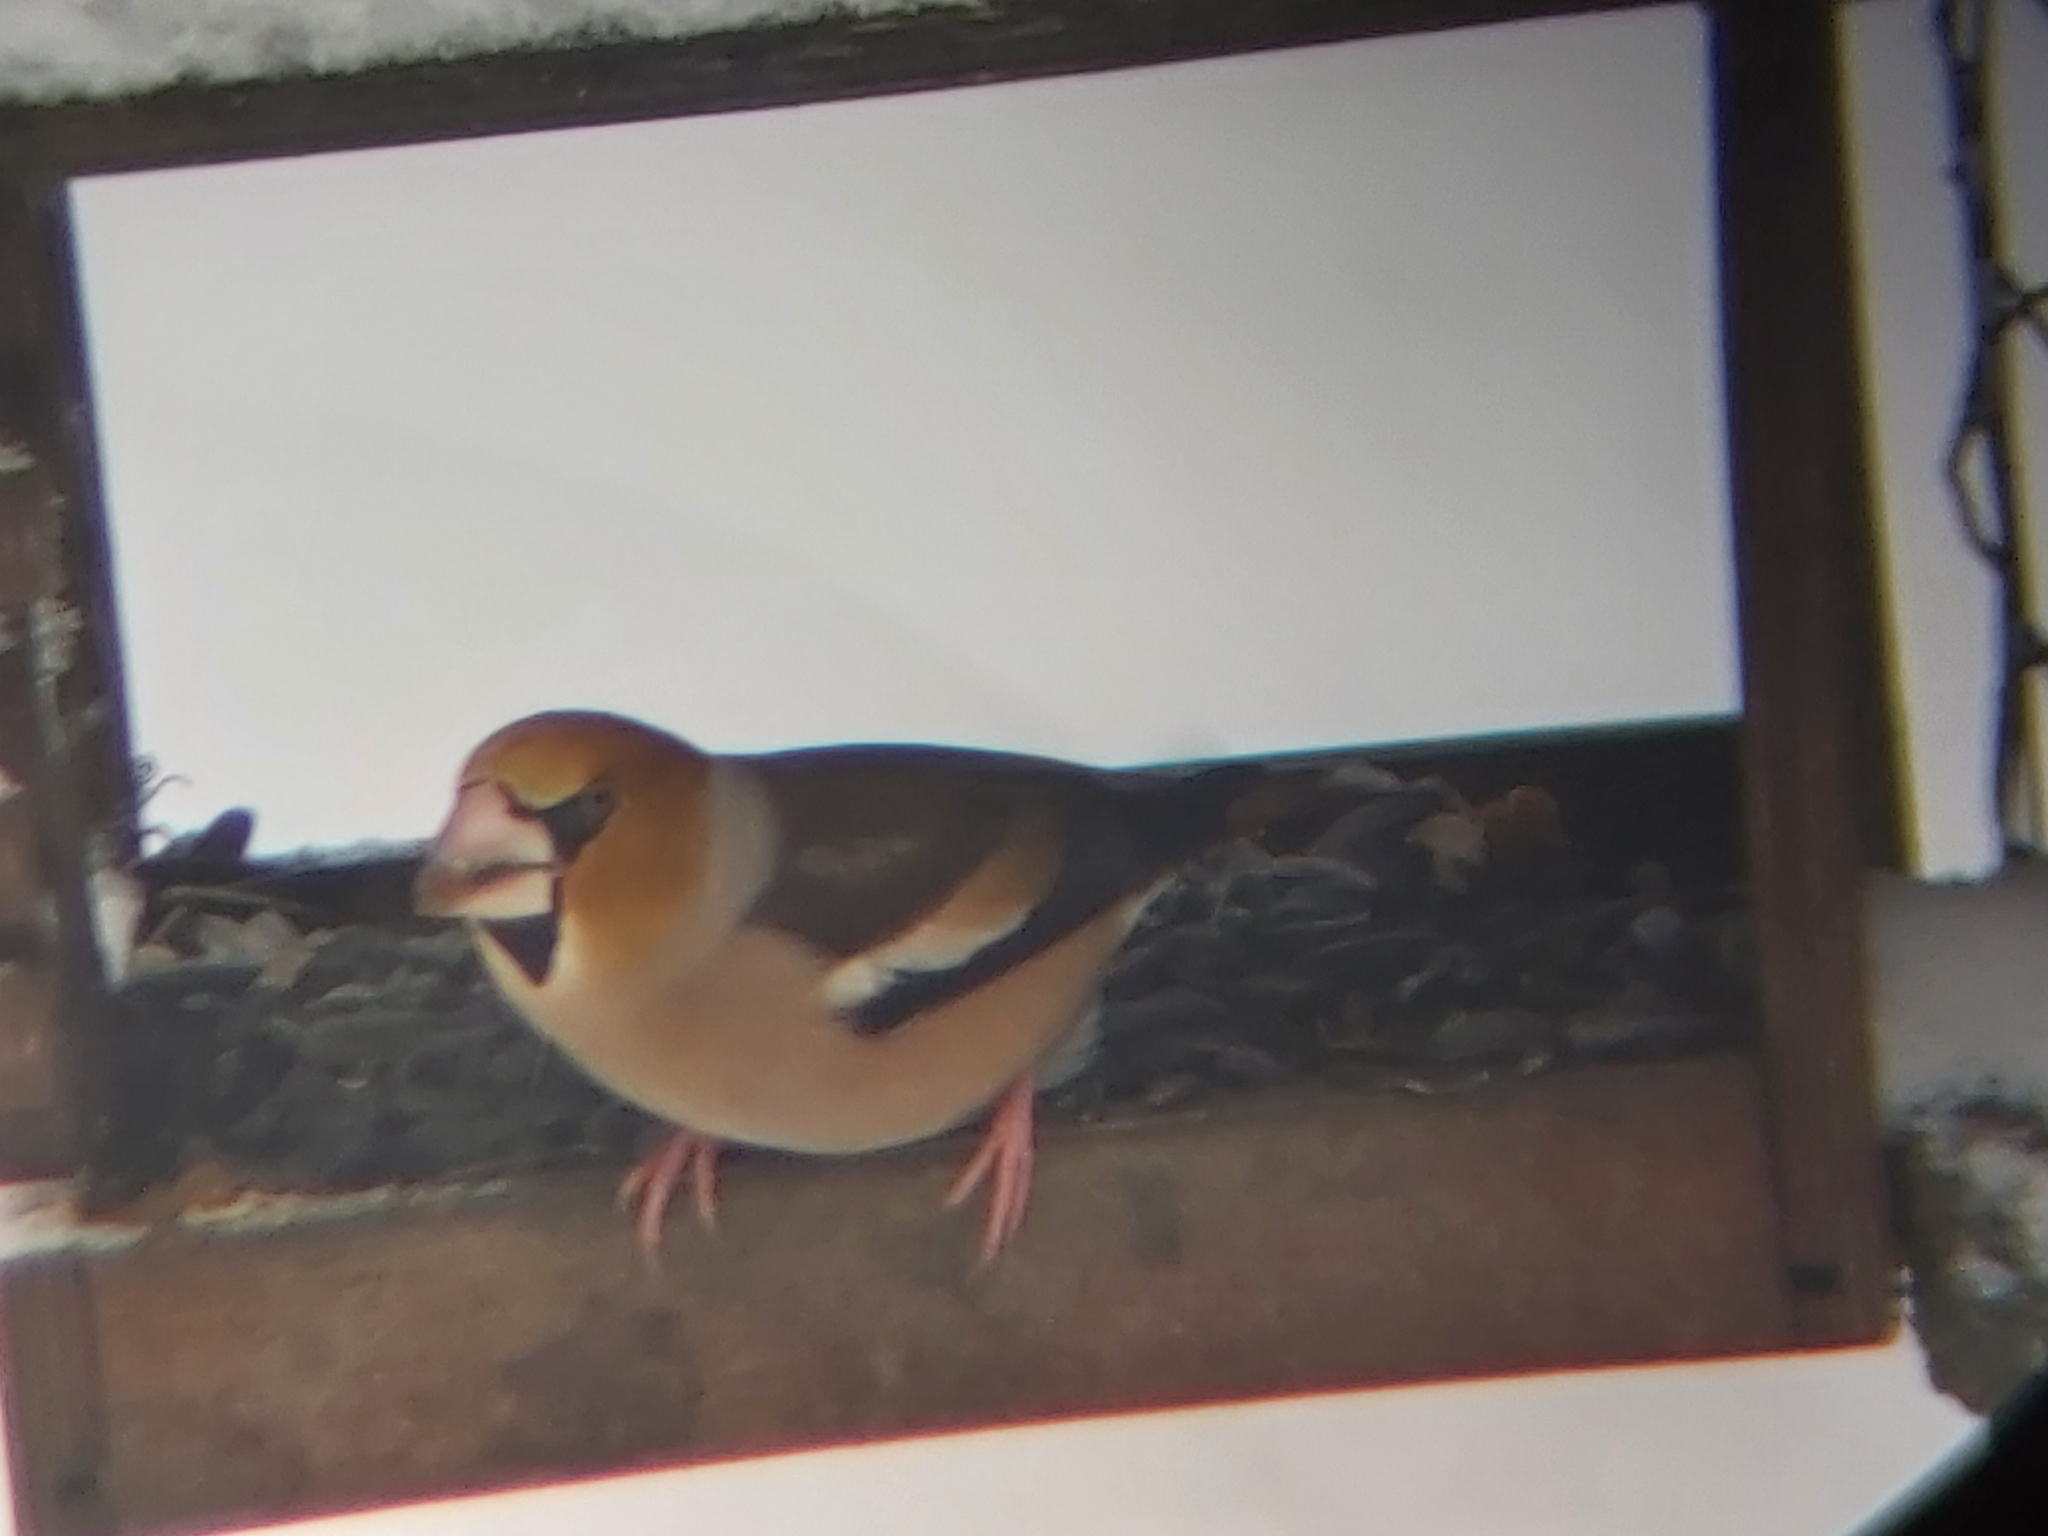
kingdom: Animalia
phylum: Chordata
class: Aves
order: Passeriformes
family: Fringillidae
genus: Coccothraustes
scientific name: Coccothraustes coccothraustes
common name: Hawfinch
